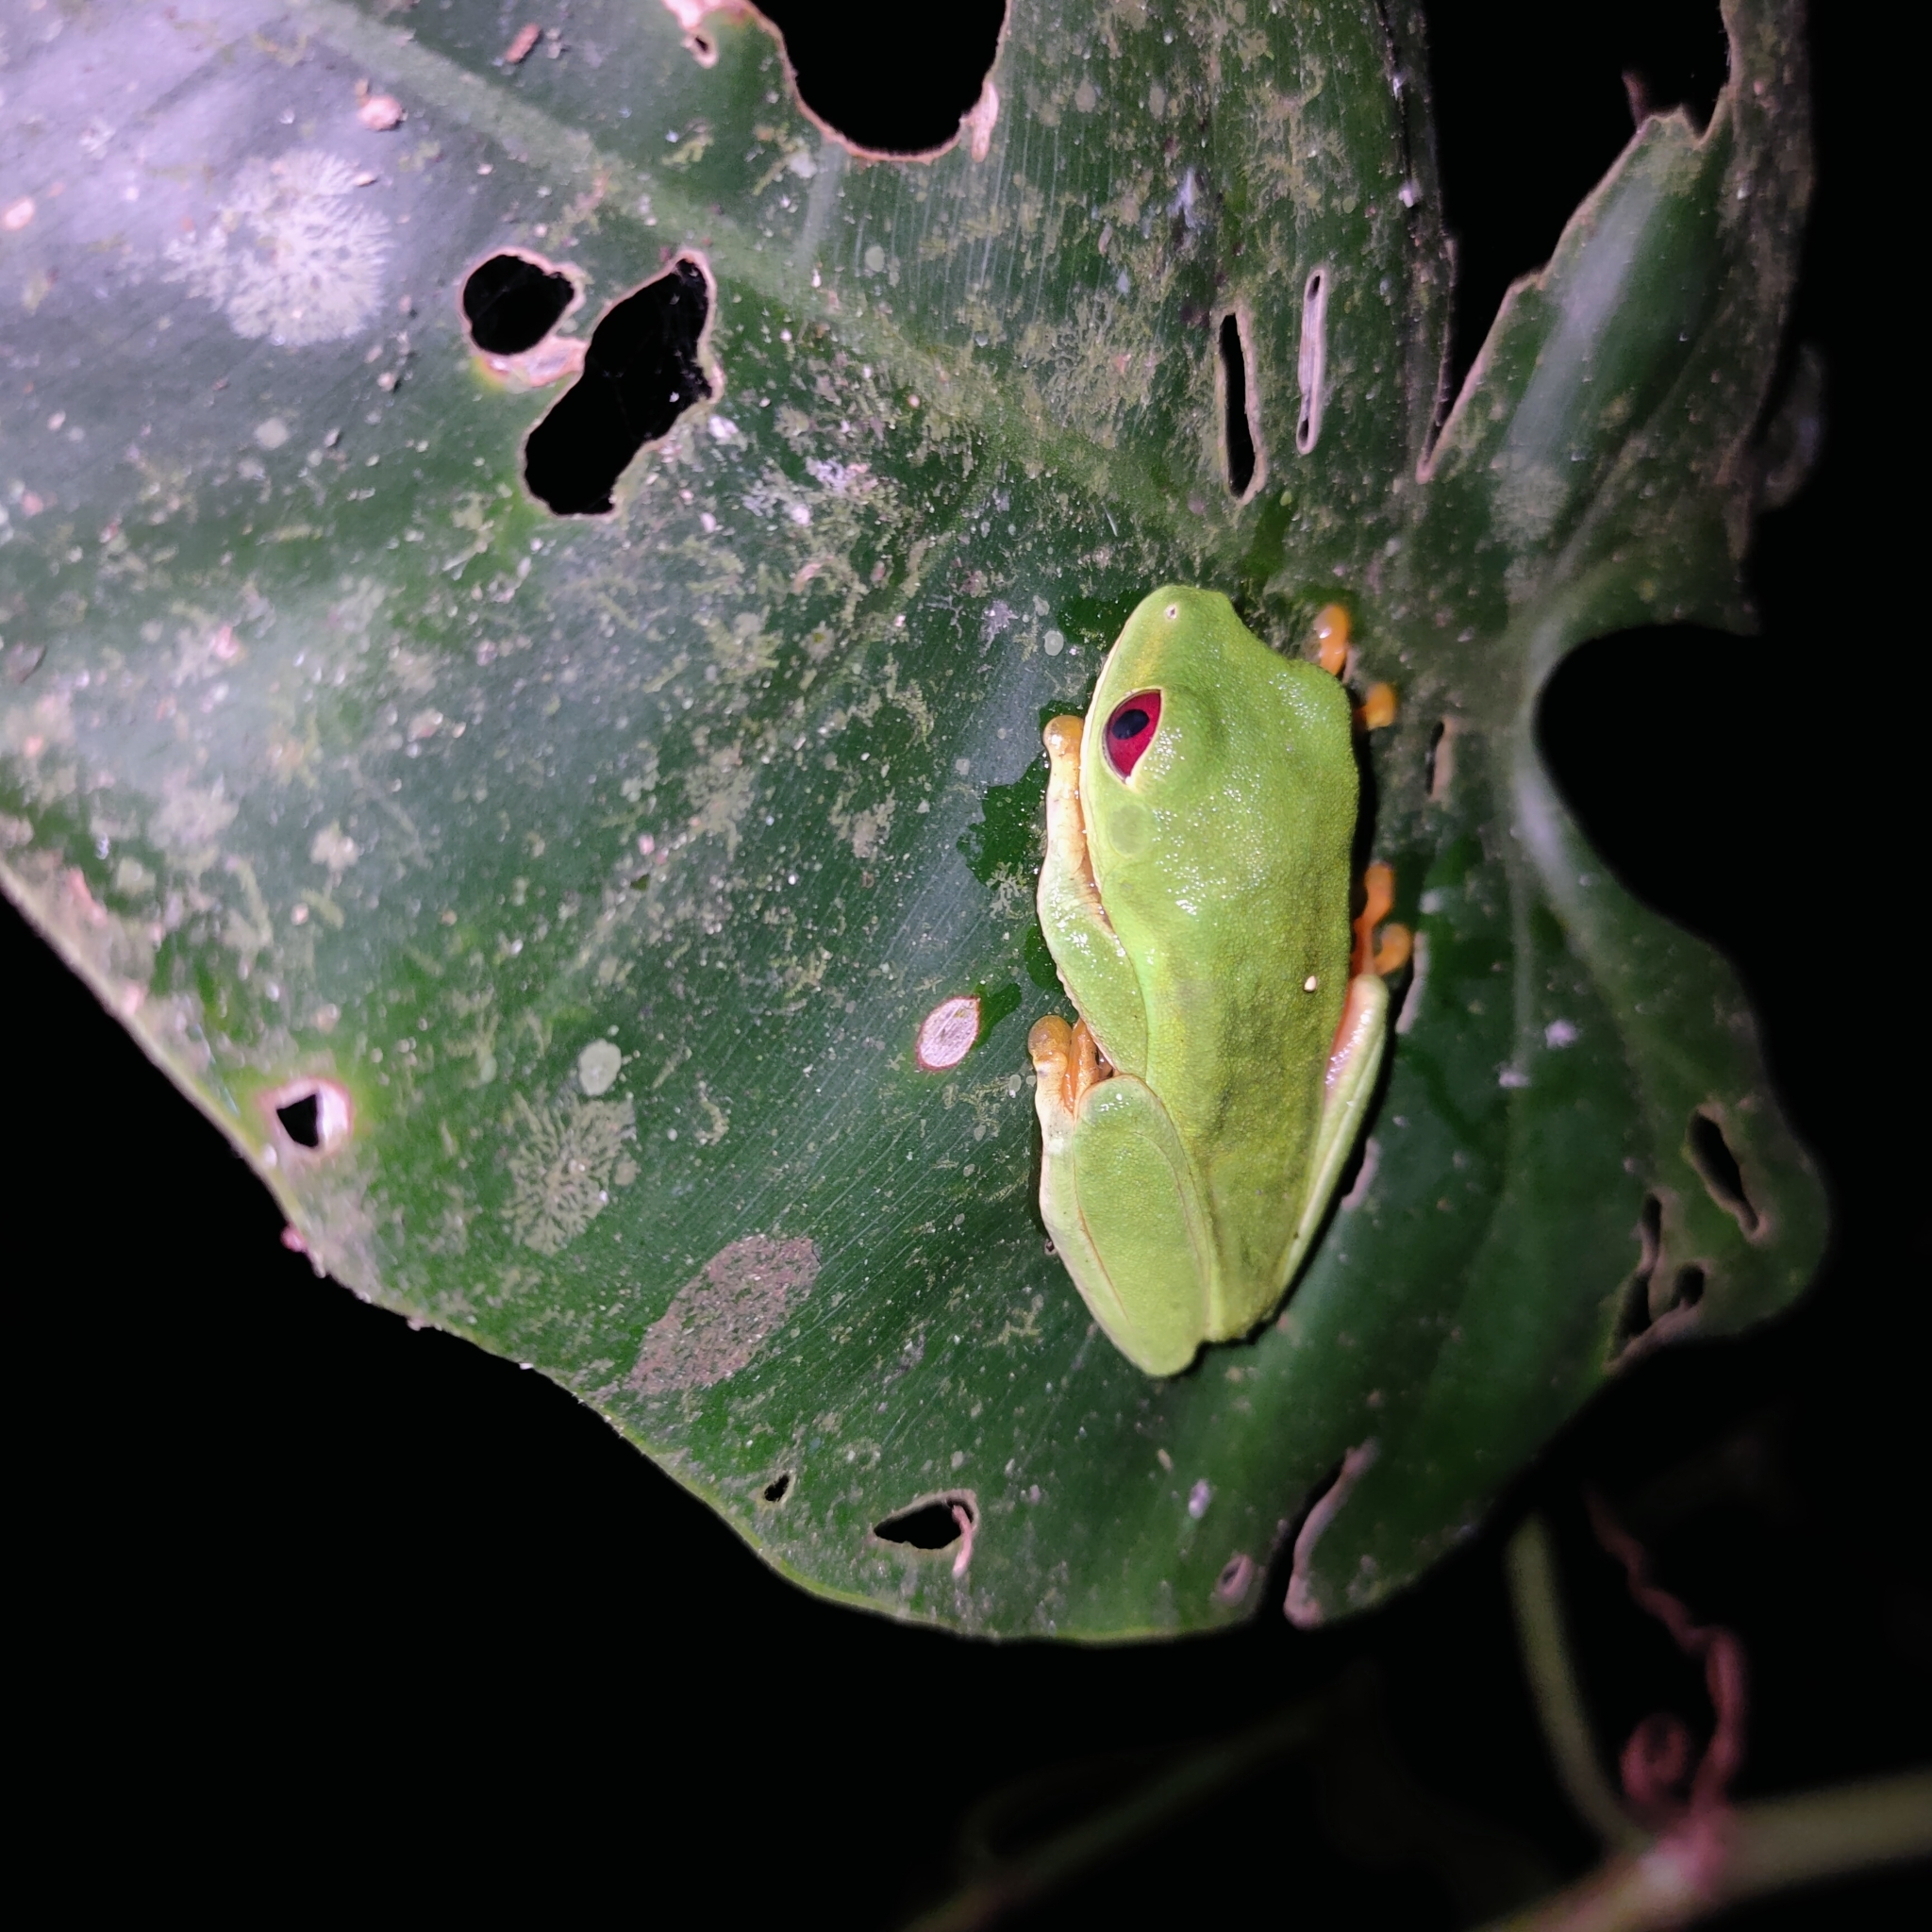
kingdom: Animalia
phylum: Chordata
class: Amphibia
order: Anura
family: Phyllomedusidae
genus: Agalychnis
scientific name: Agalychnis callidryas
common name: Red-eyed treefrog
